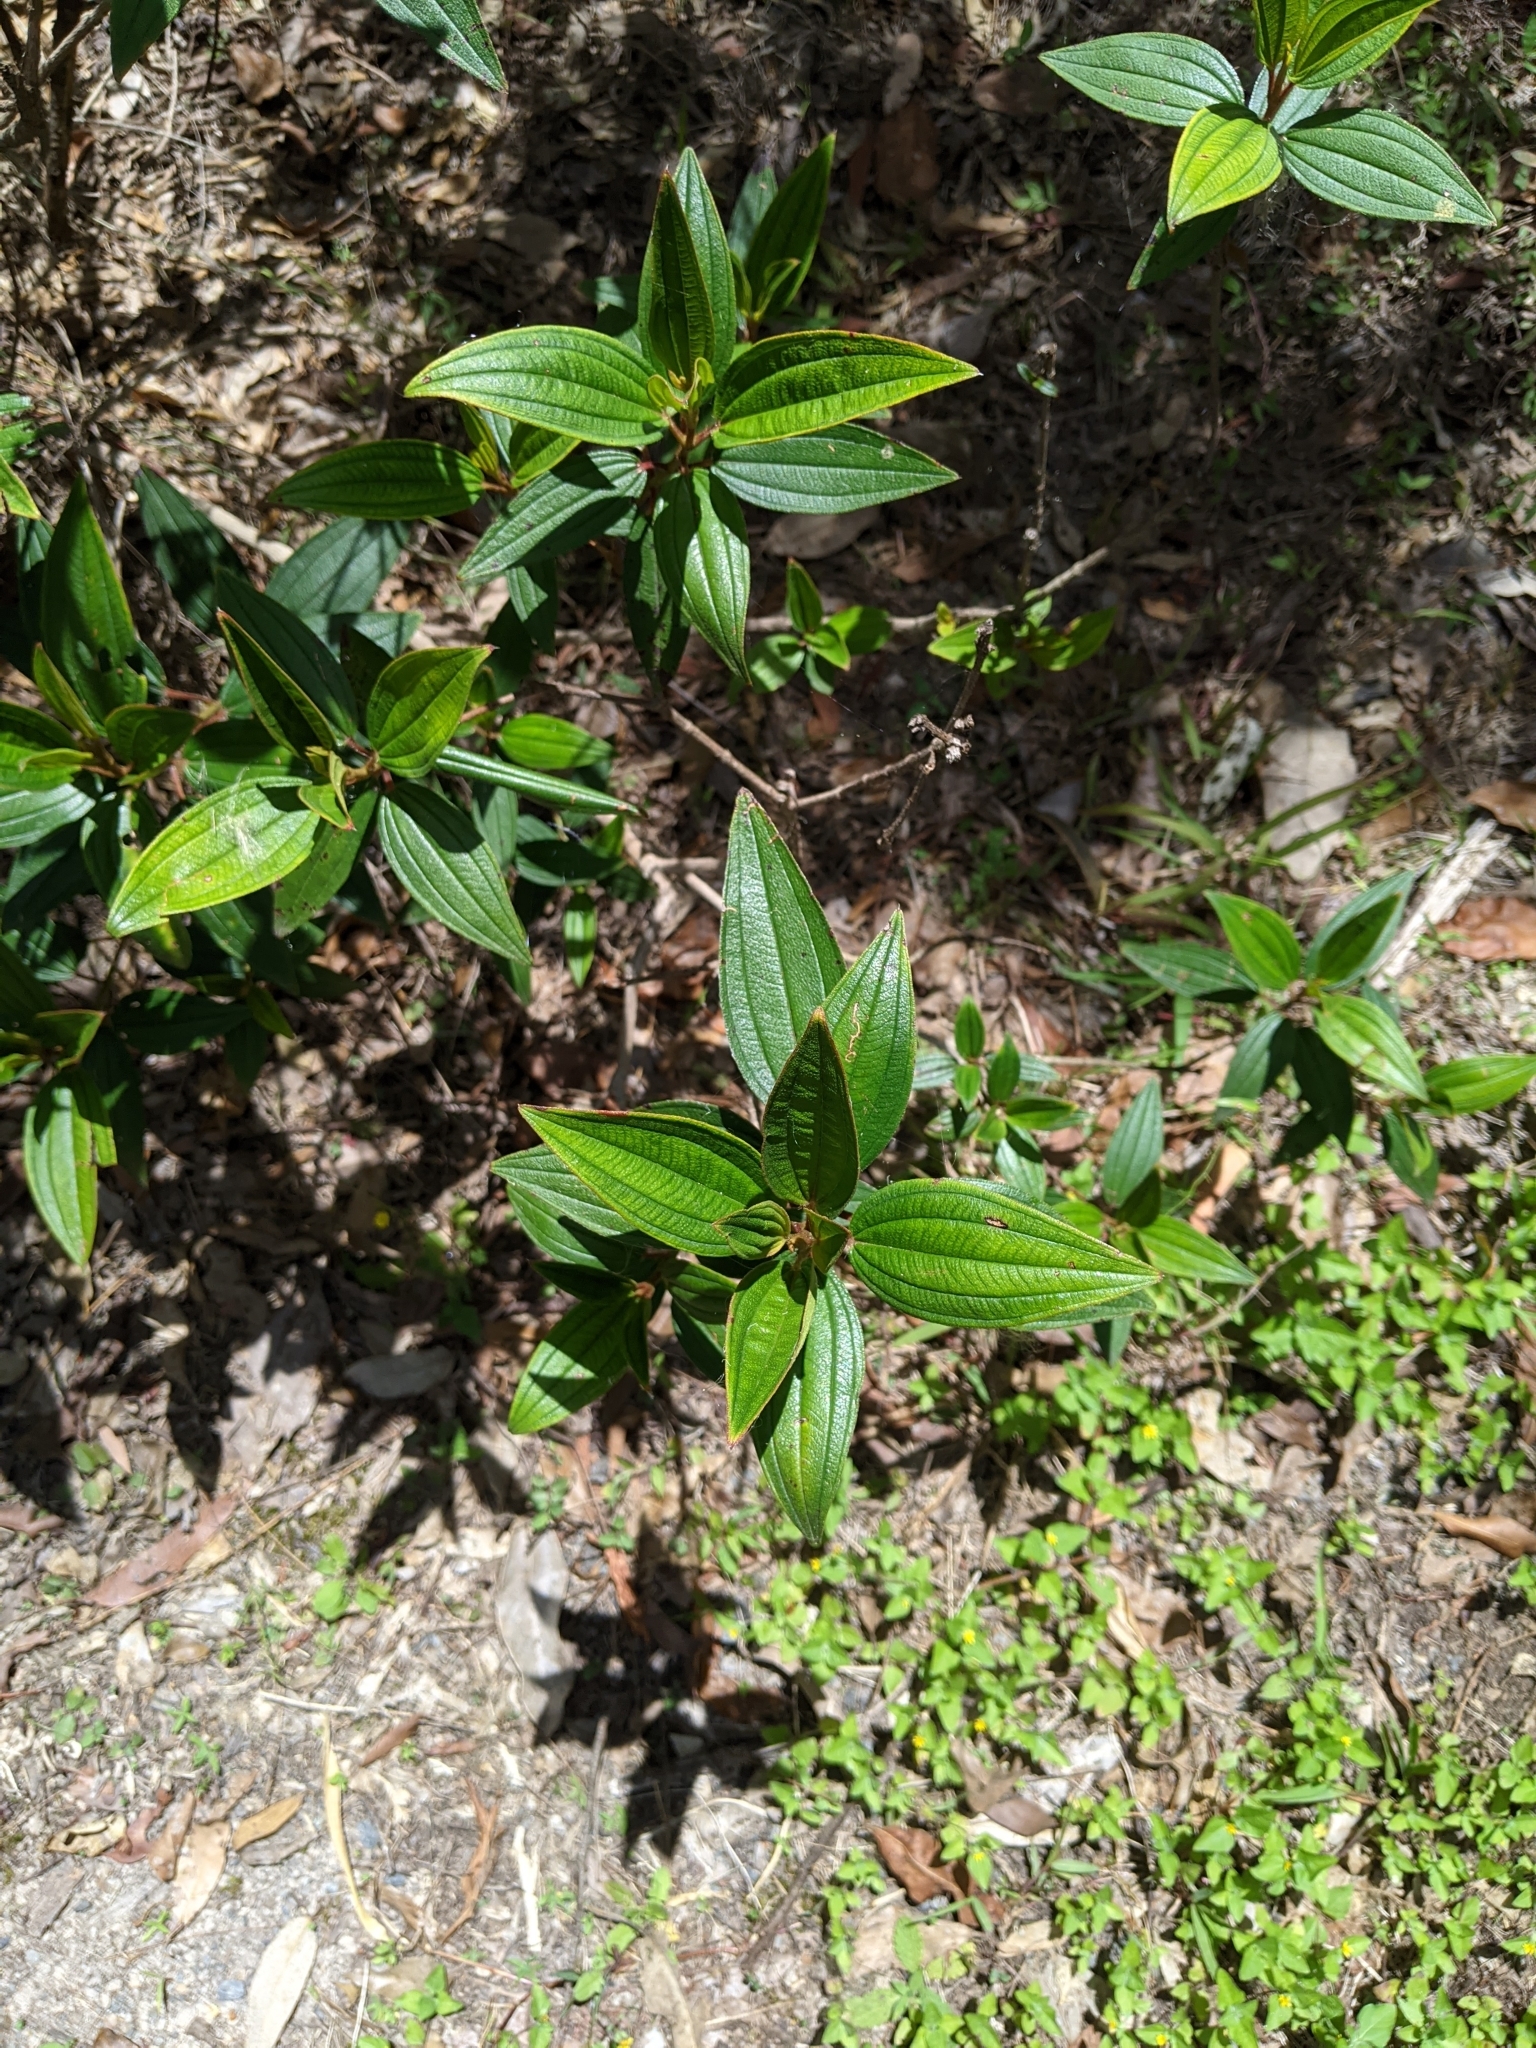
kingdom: Plantae
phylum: Tracheophyta
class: Magnoliopsida
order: Myrtales
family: Melastomataceae
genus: Melastoma
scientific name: Melastoma malabathricum
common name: Indian-rhododendron
